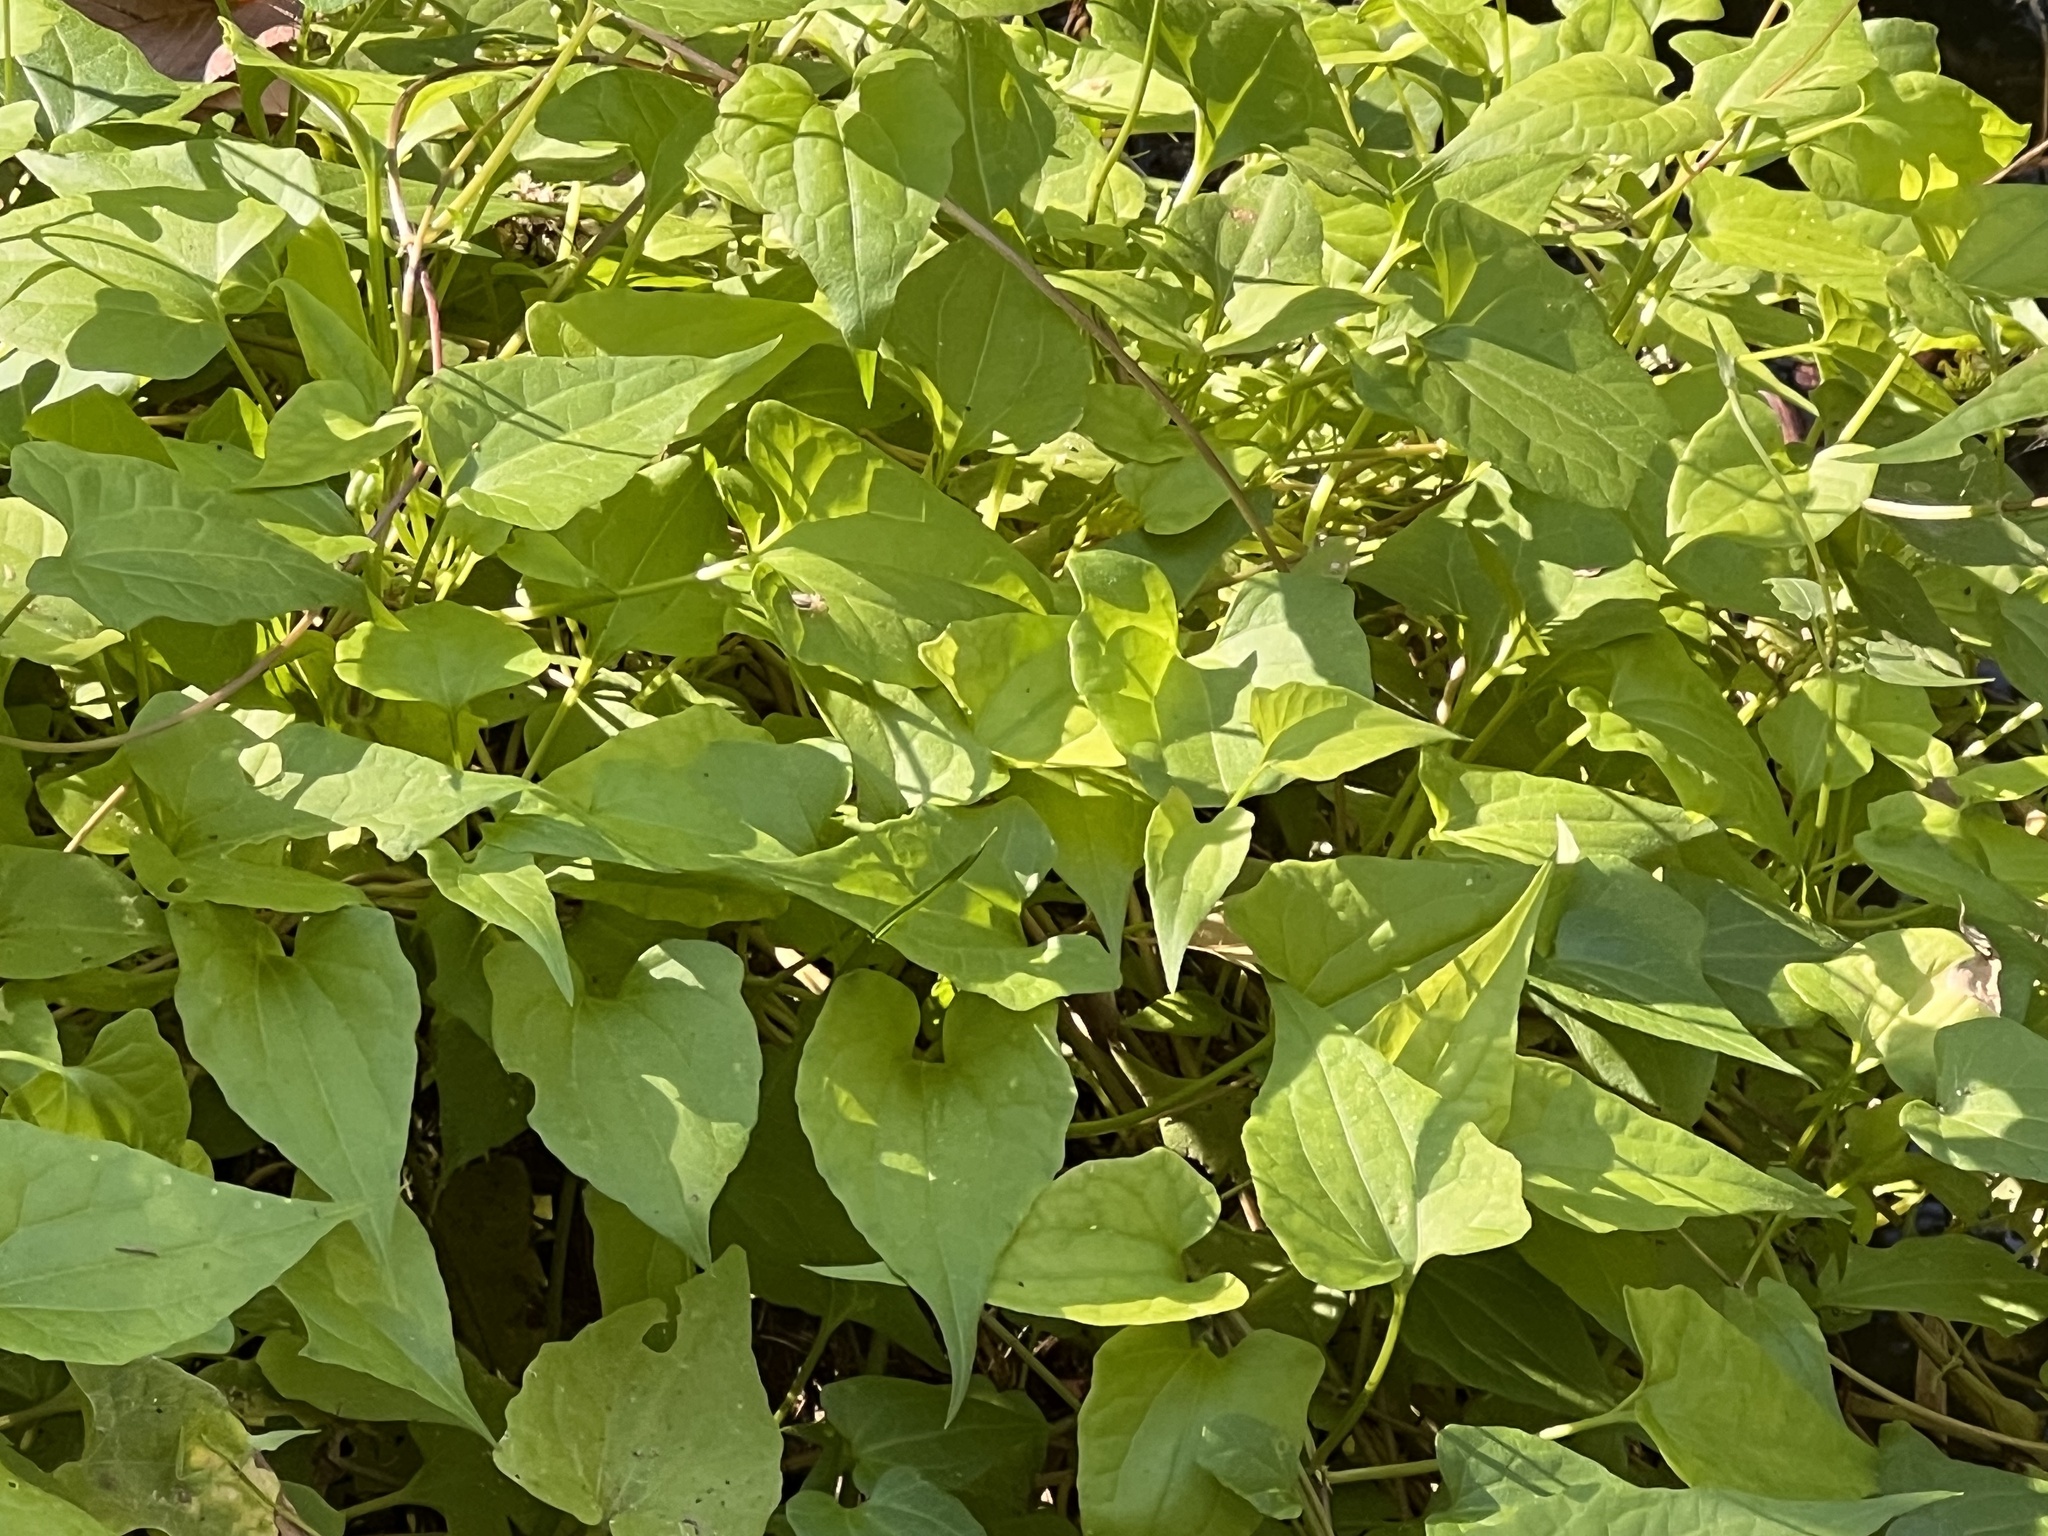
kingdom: Plantae
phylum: Tracheophyta
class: Magnoliopsida
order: Asterales
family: Asteraceae
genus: Mikania
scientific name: Mikania scandens
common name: Climbing hempvine
